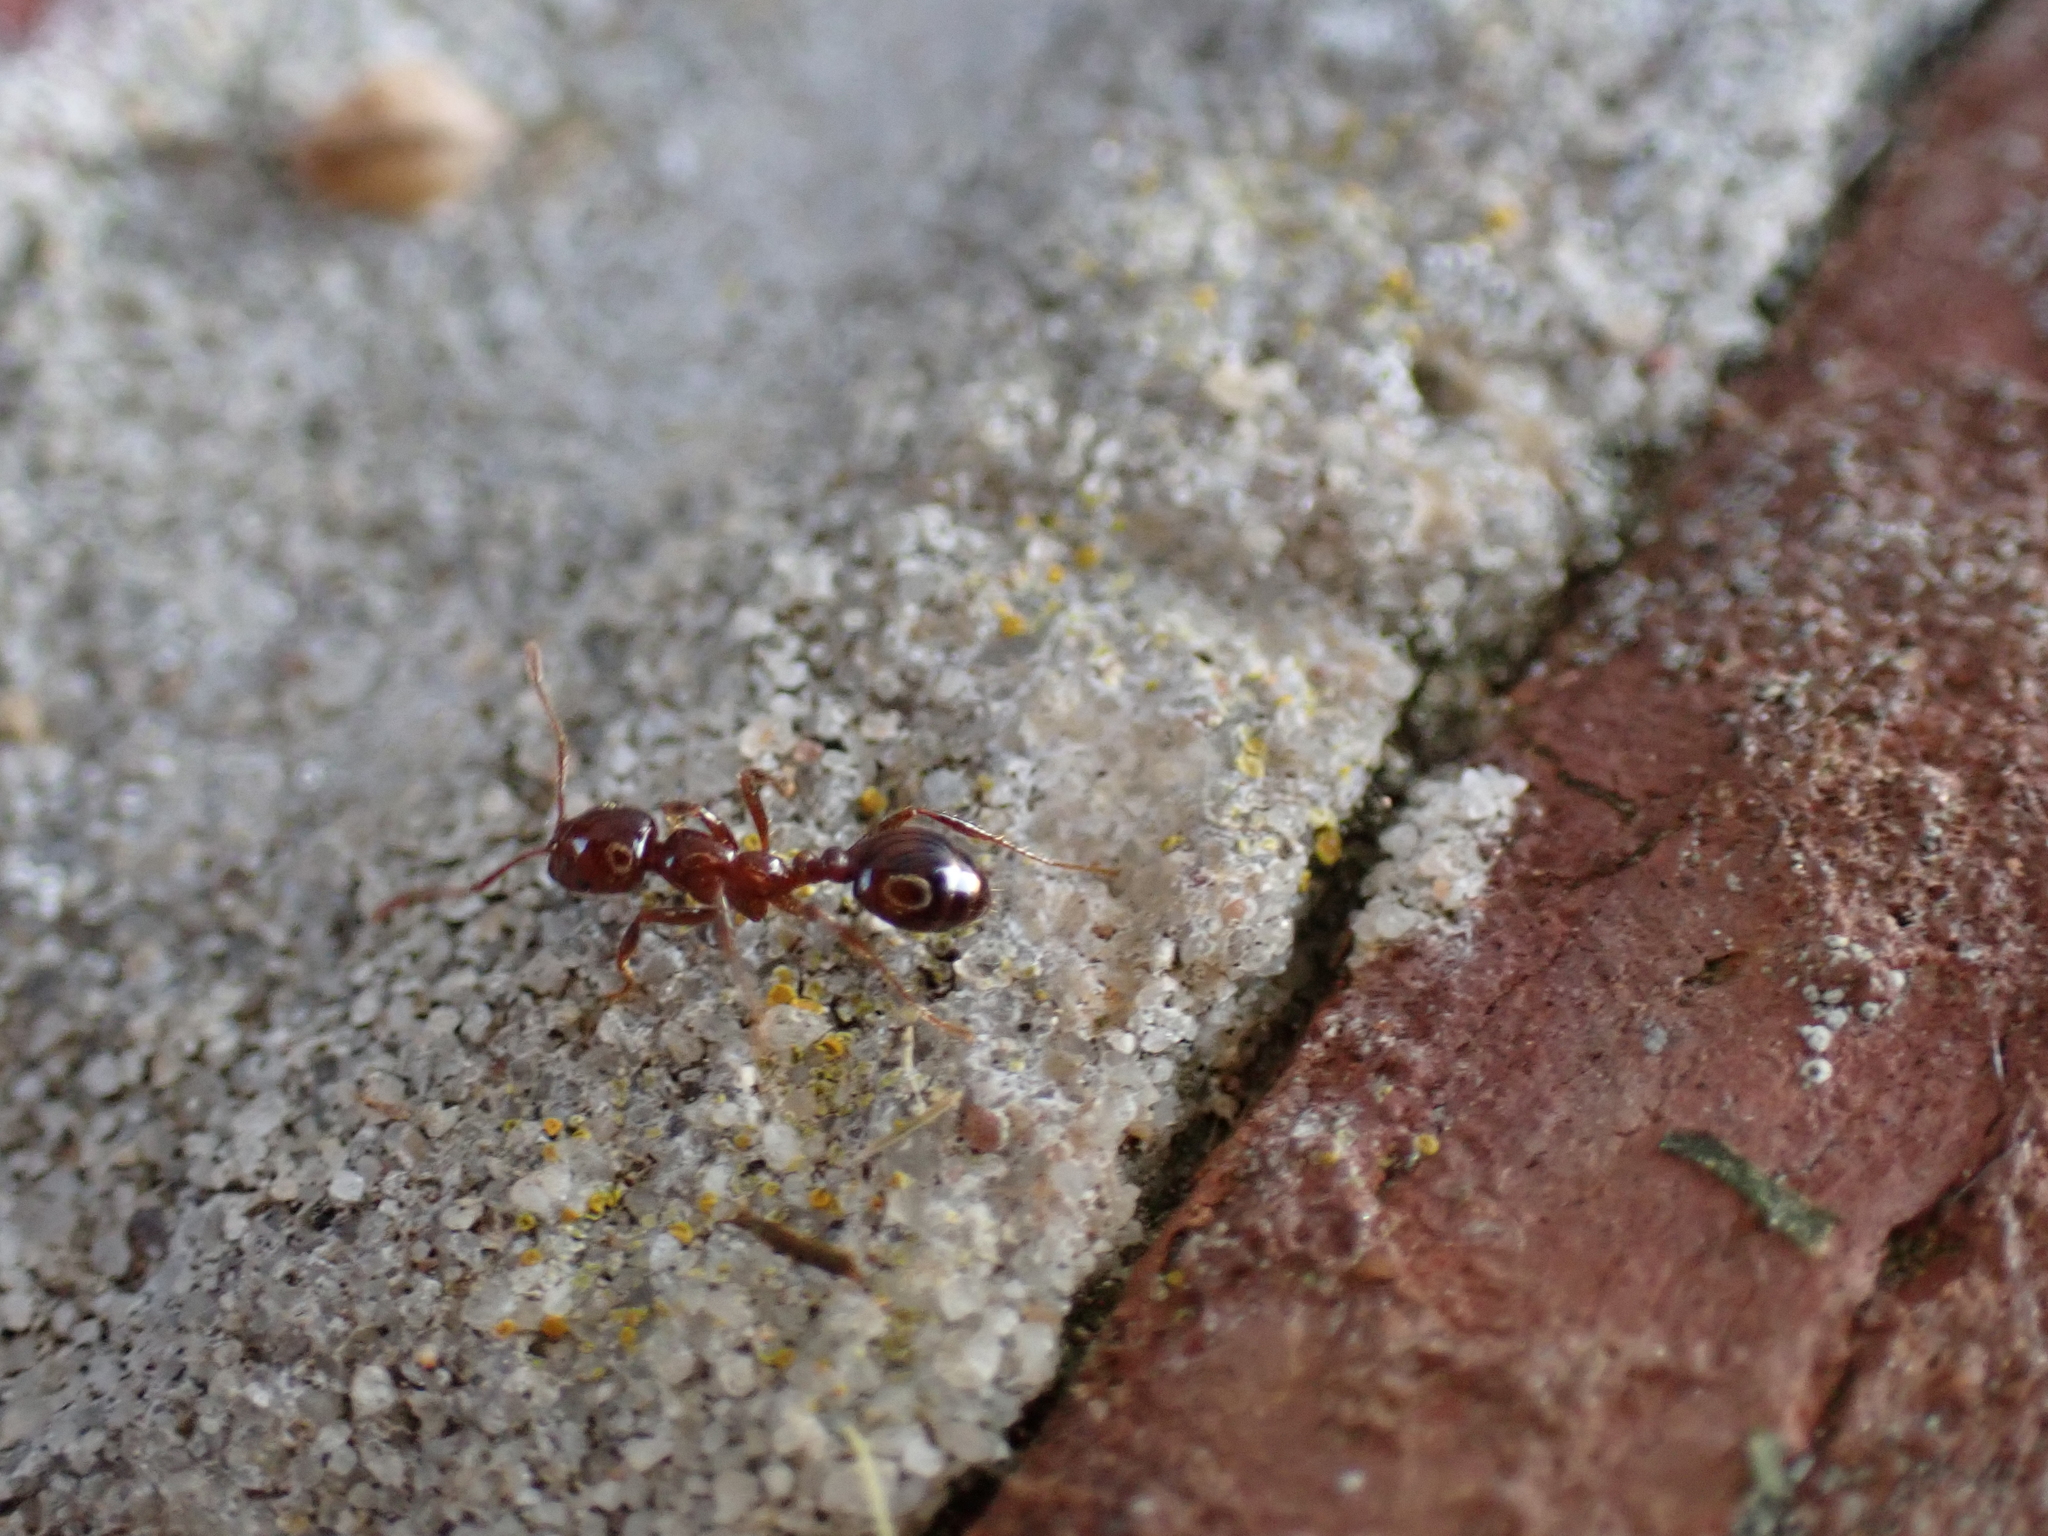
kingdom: Animalia
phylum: Arthropoda
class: Insecta
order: Hymenoptera
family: Formicidae
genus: Solenopsis
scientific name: Solenopsis
